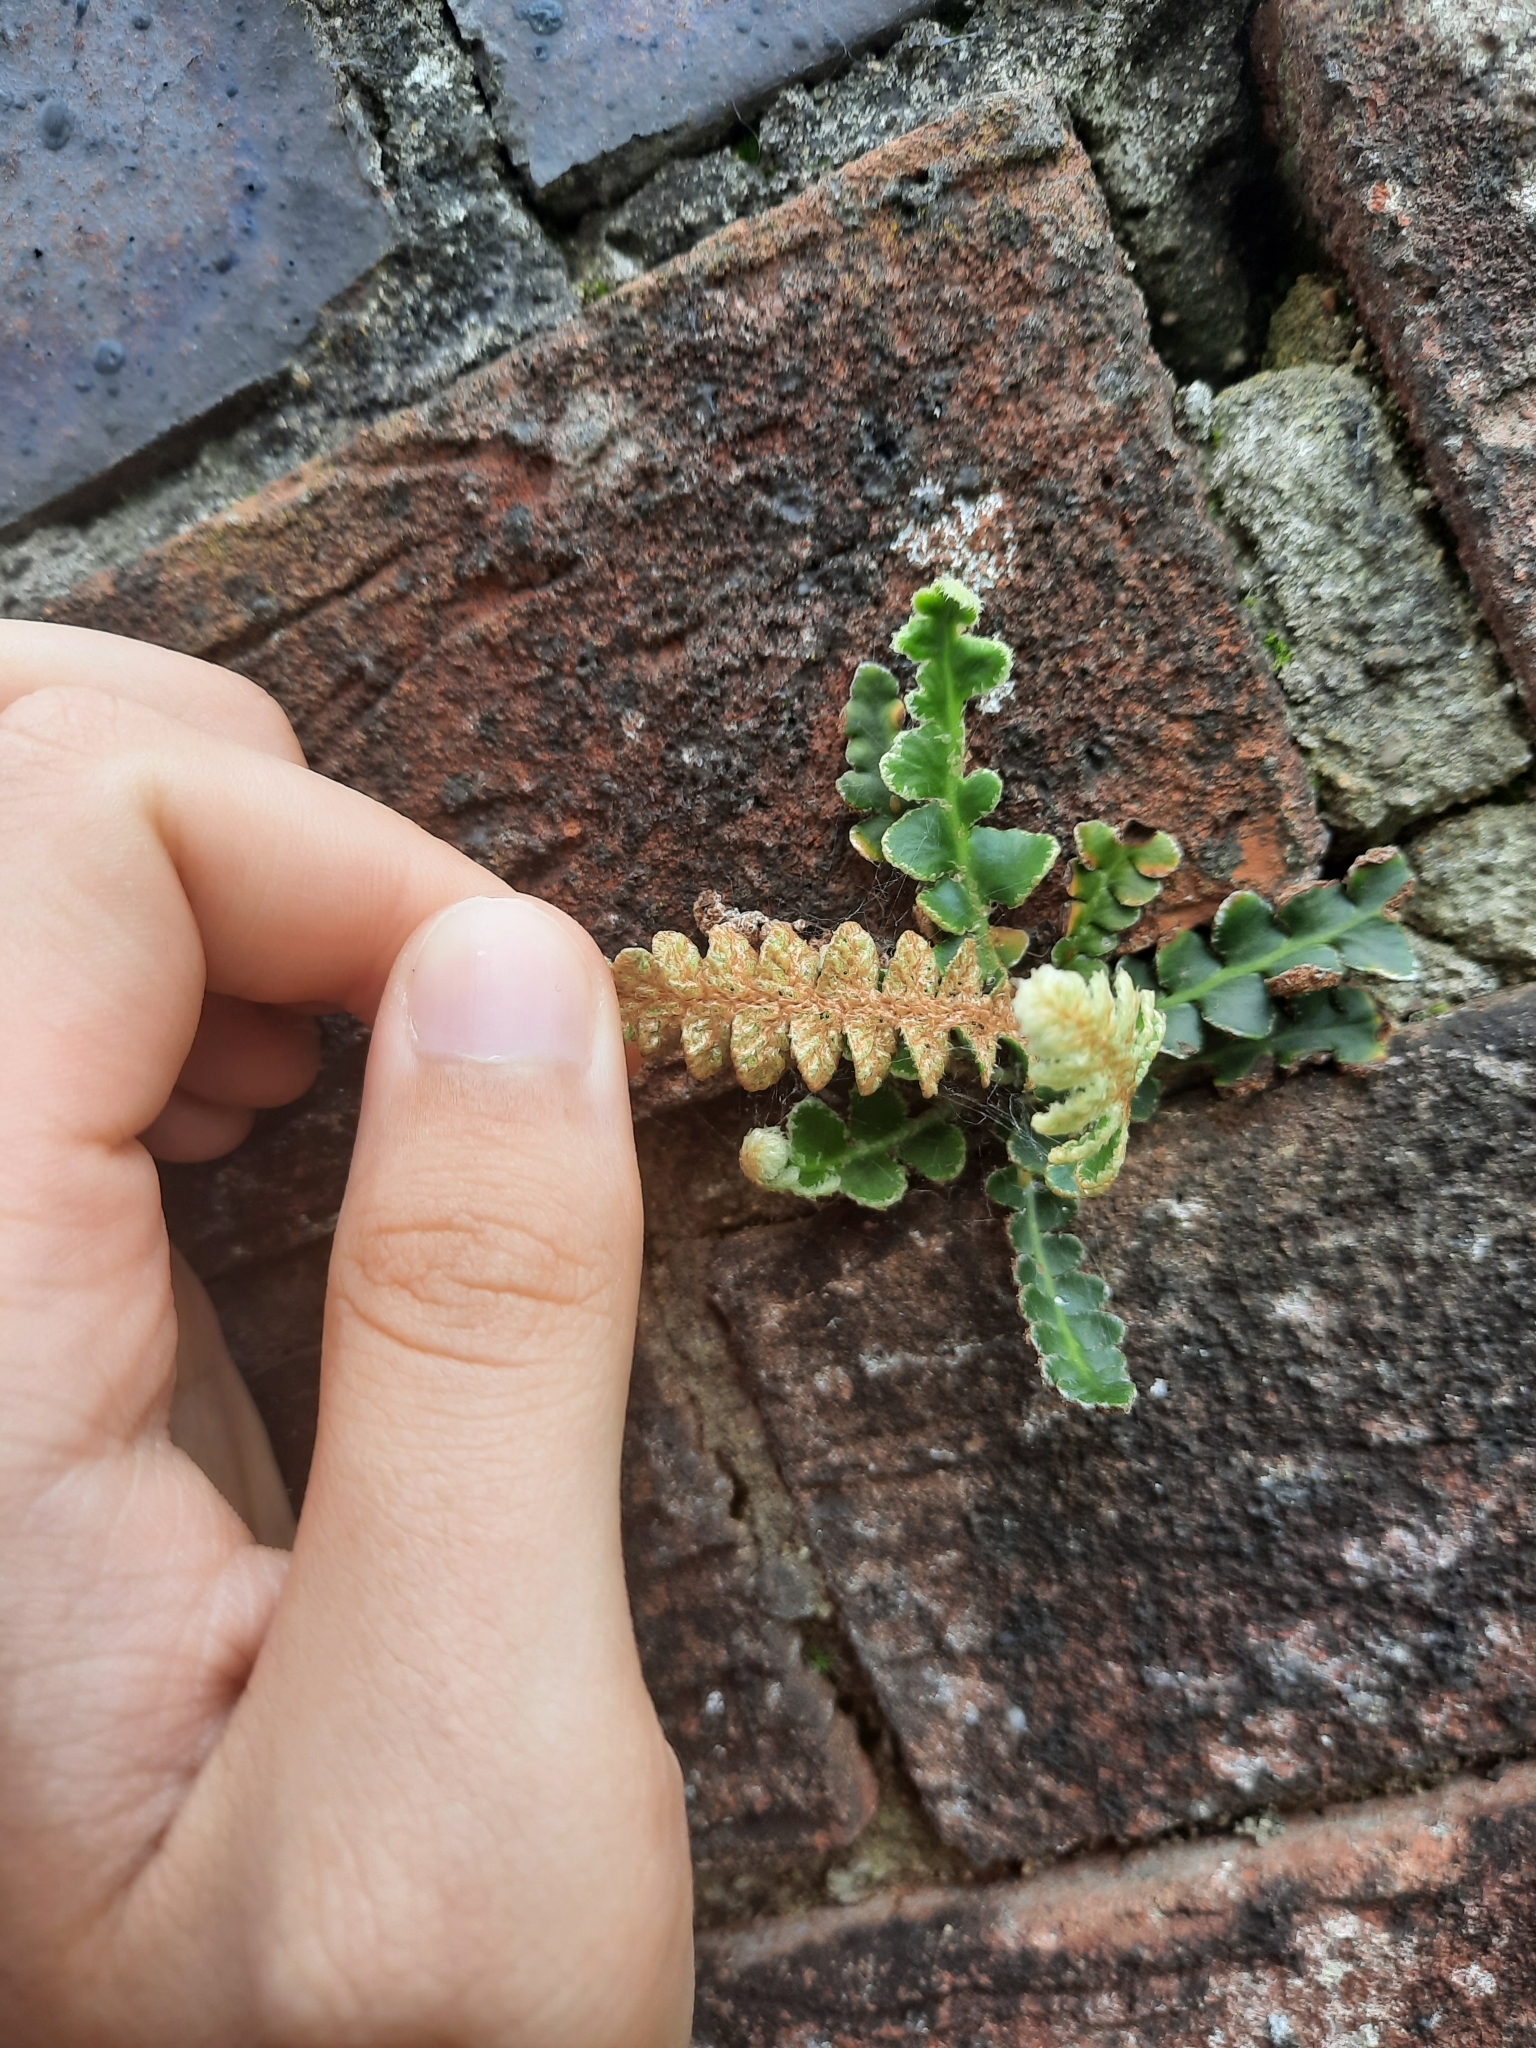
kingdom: Plantae
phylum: Tracheophyta
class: Polypodiopsida
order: Polypodiales
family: Aspleniaceae
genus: Asplenium
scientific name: Asplenium ceterach
